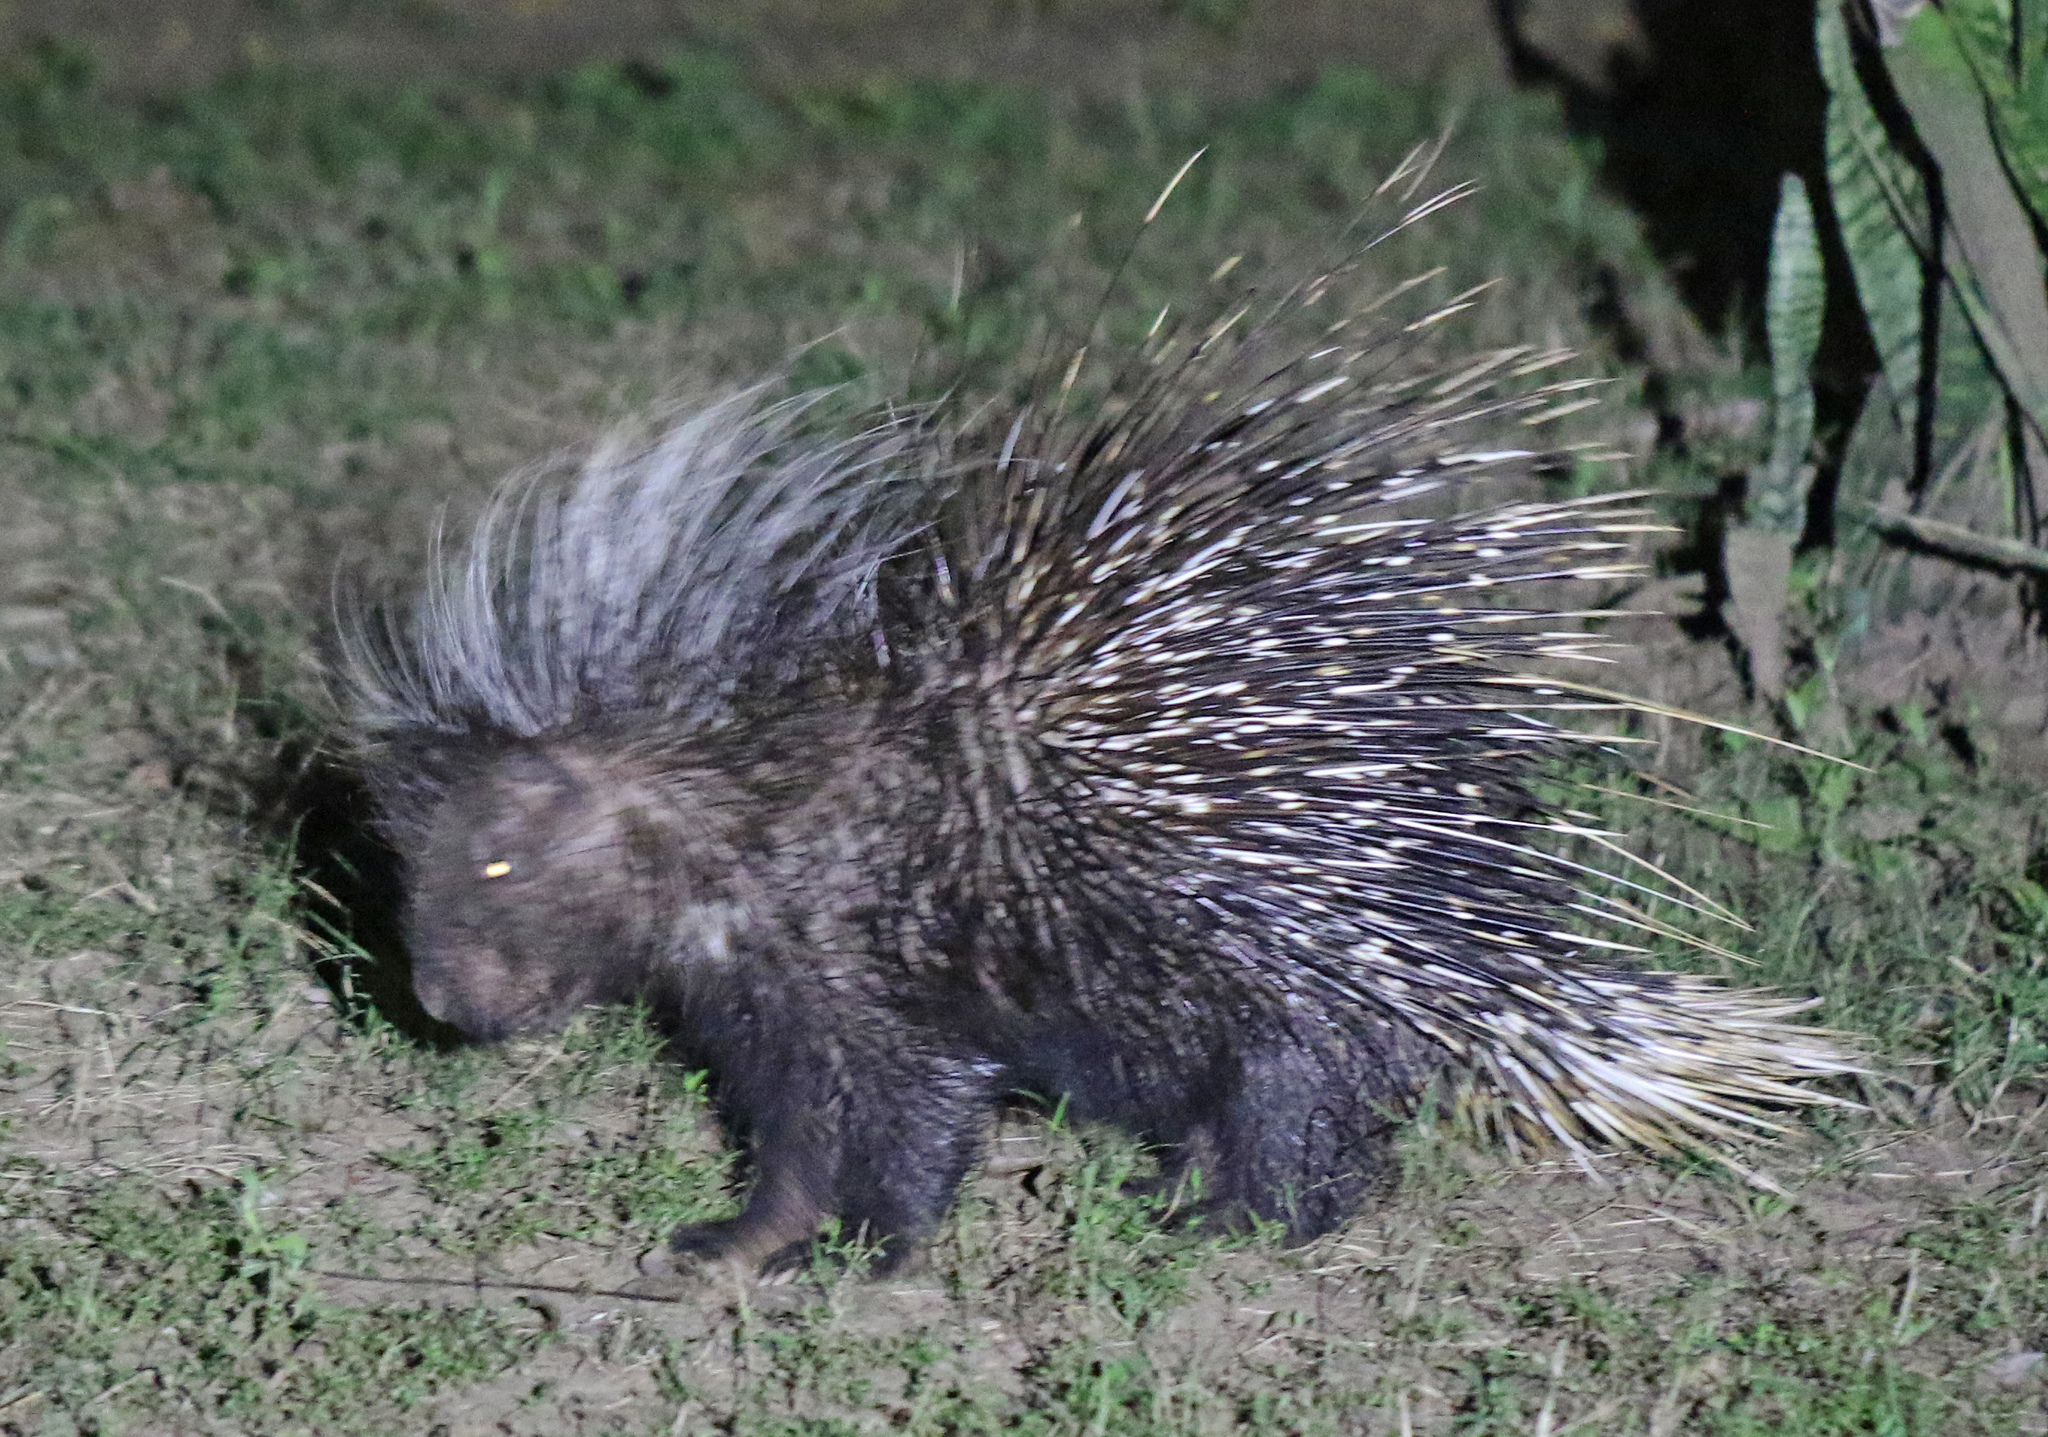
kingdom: Animalia
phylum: Chordata
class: Mammalia
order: Rodentia
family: Hystricidae
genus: Hystrix
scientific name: Hystrix africaeaustralis
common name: Cape porcupine
